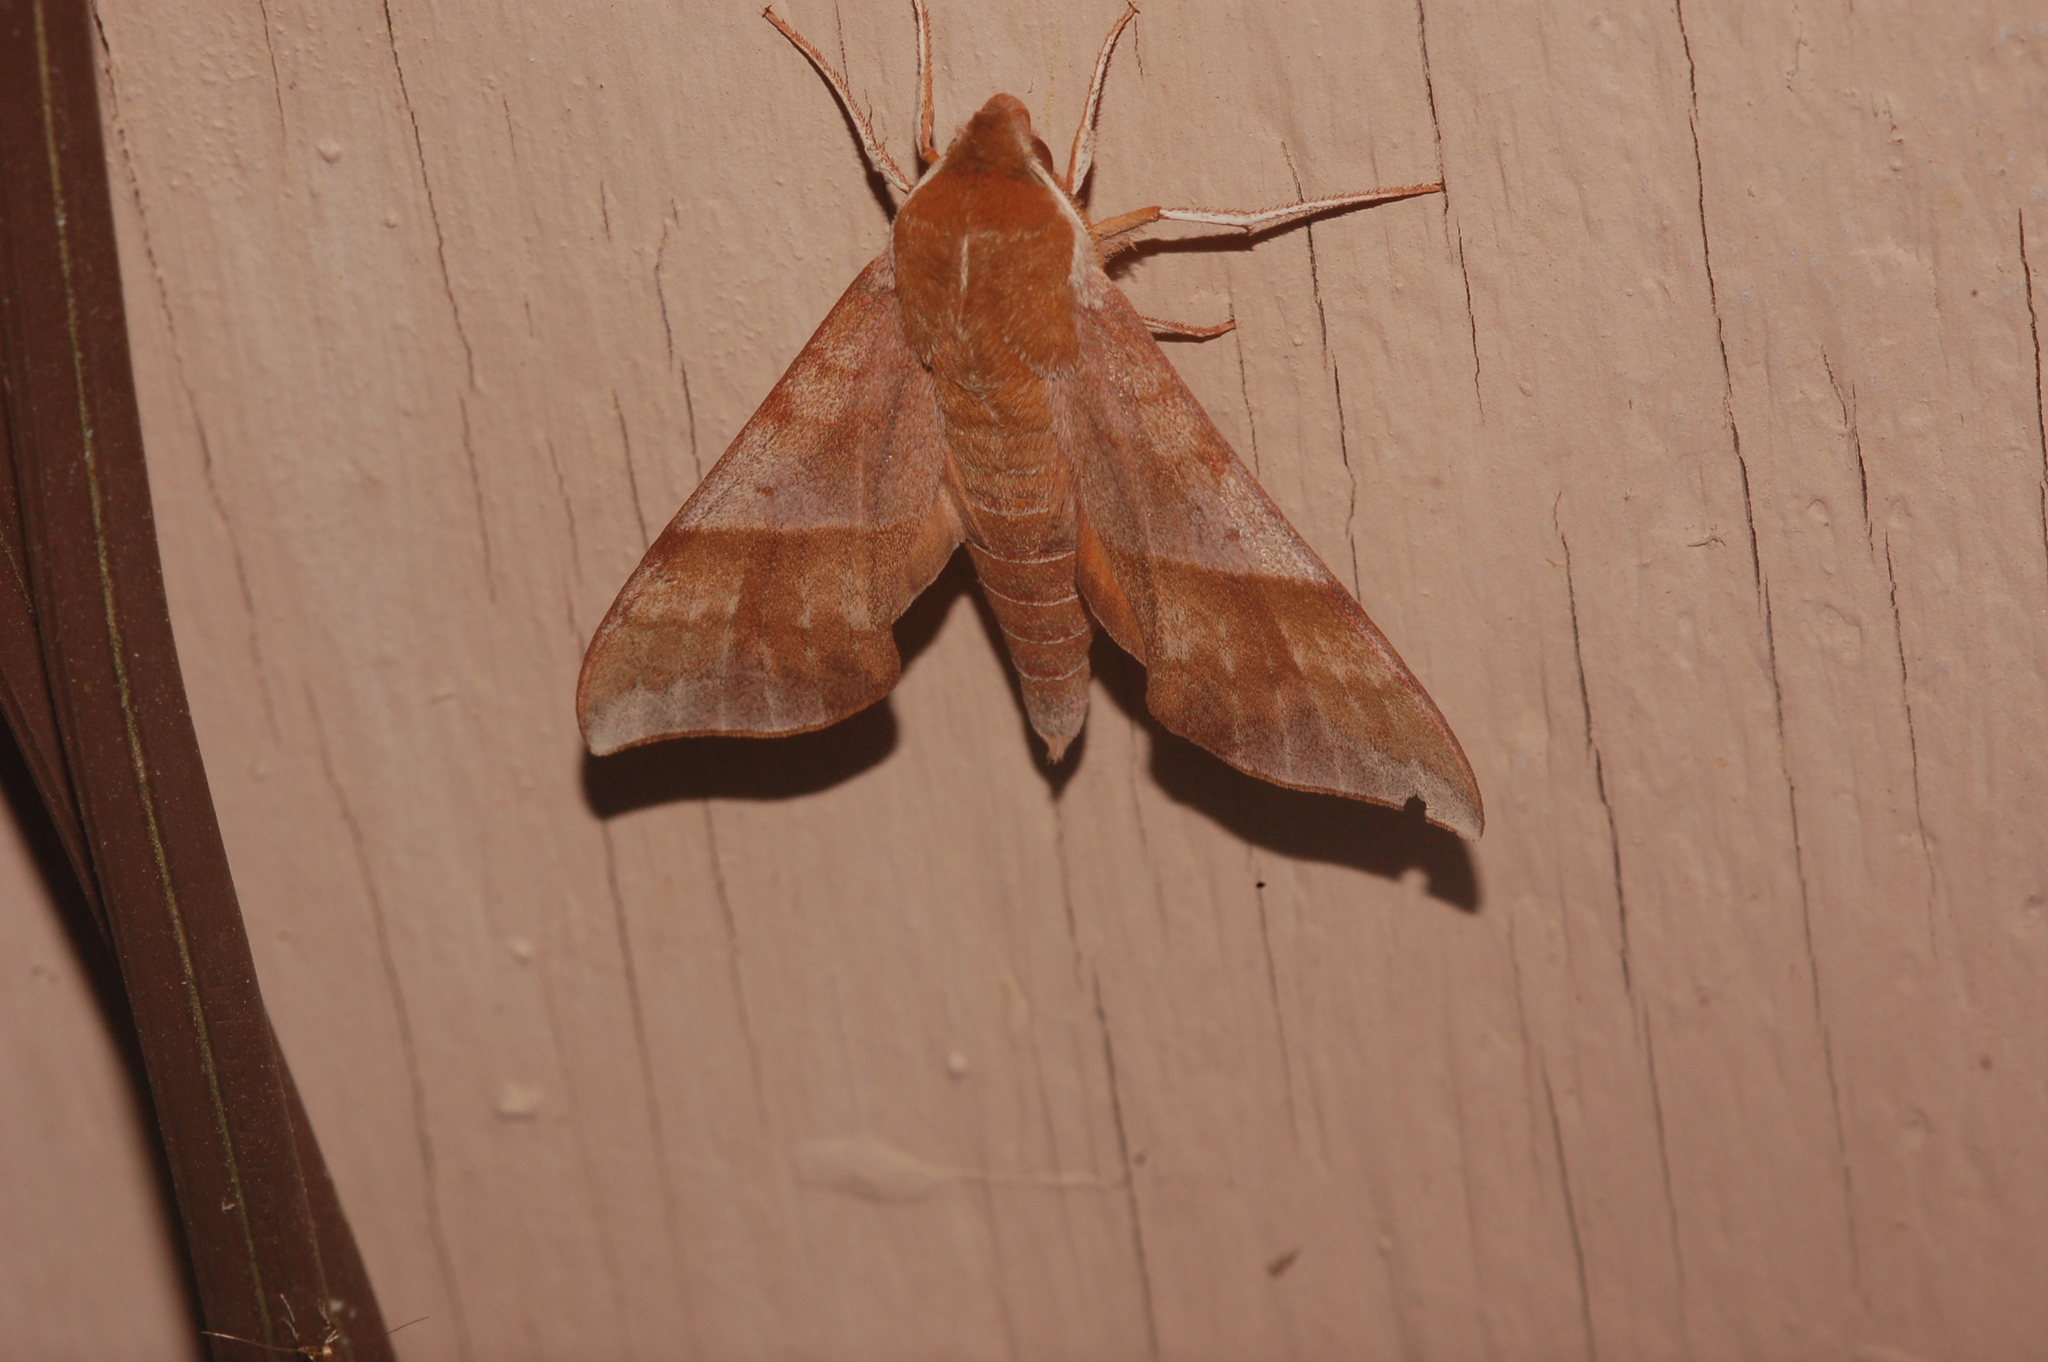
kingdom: Animalia
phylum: Arthropoda
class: Insecta
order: Lepidoptera
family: Sphingidae
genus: Darapsa
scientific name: Darapsa choerilus
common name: Azalea sphinx
